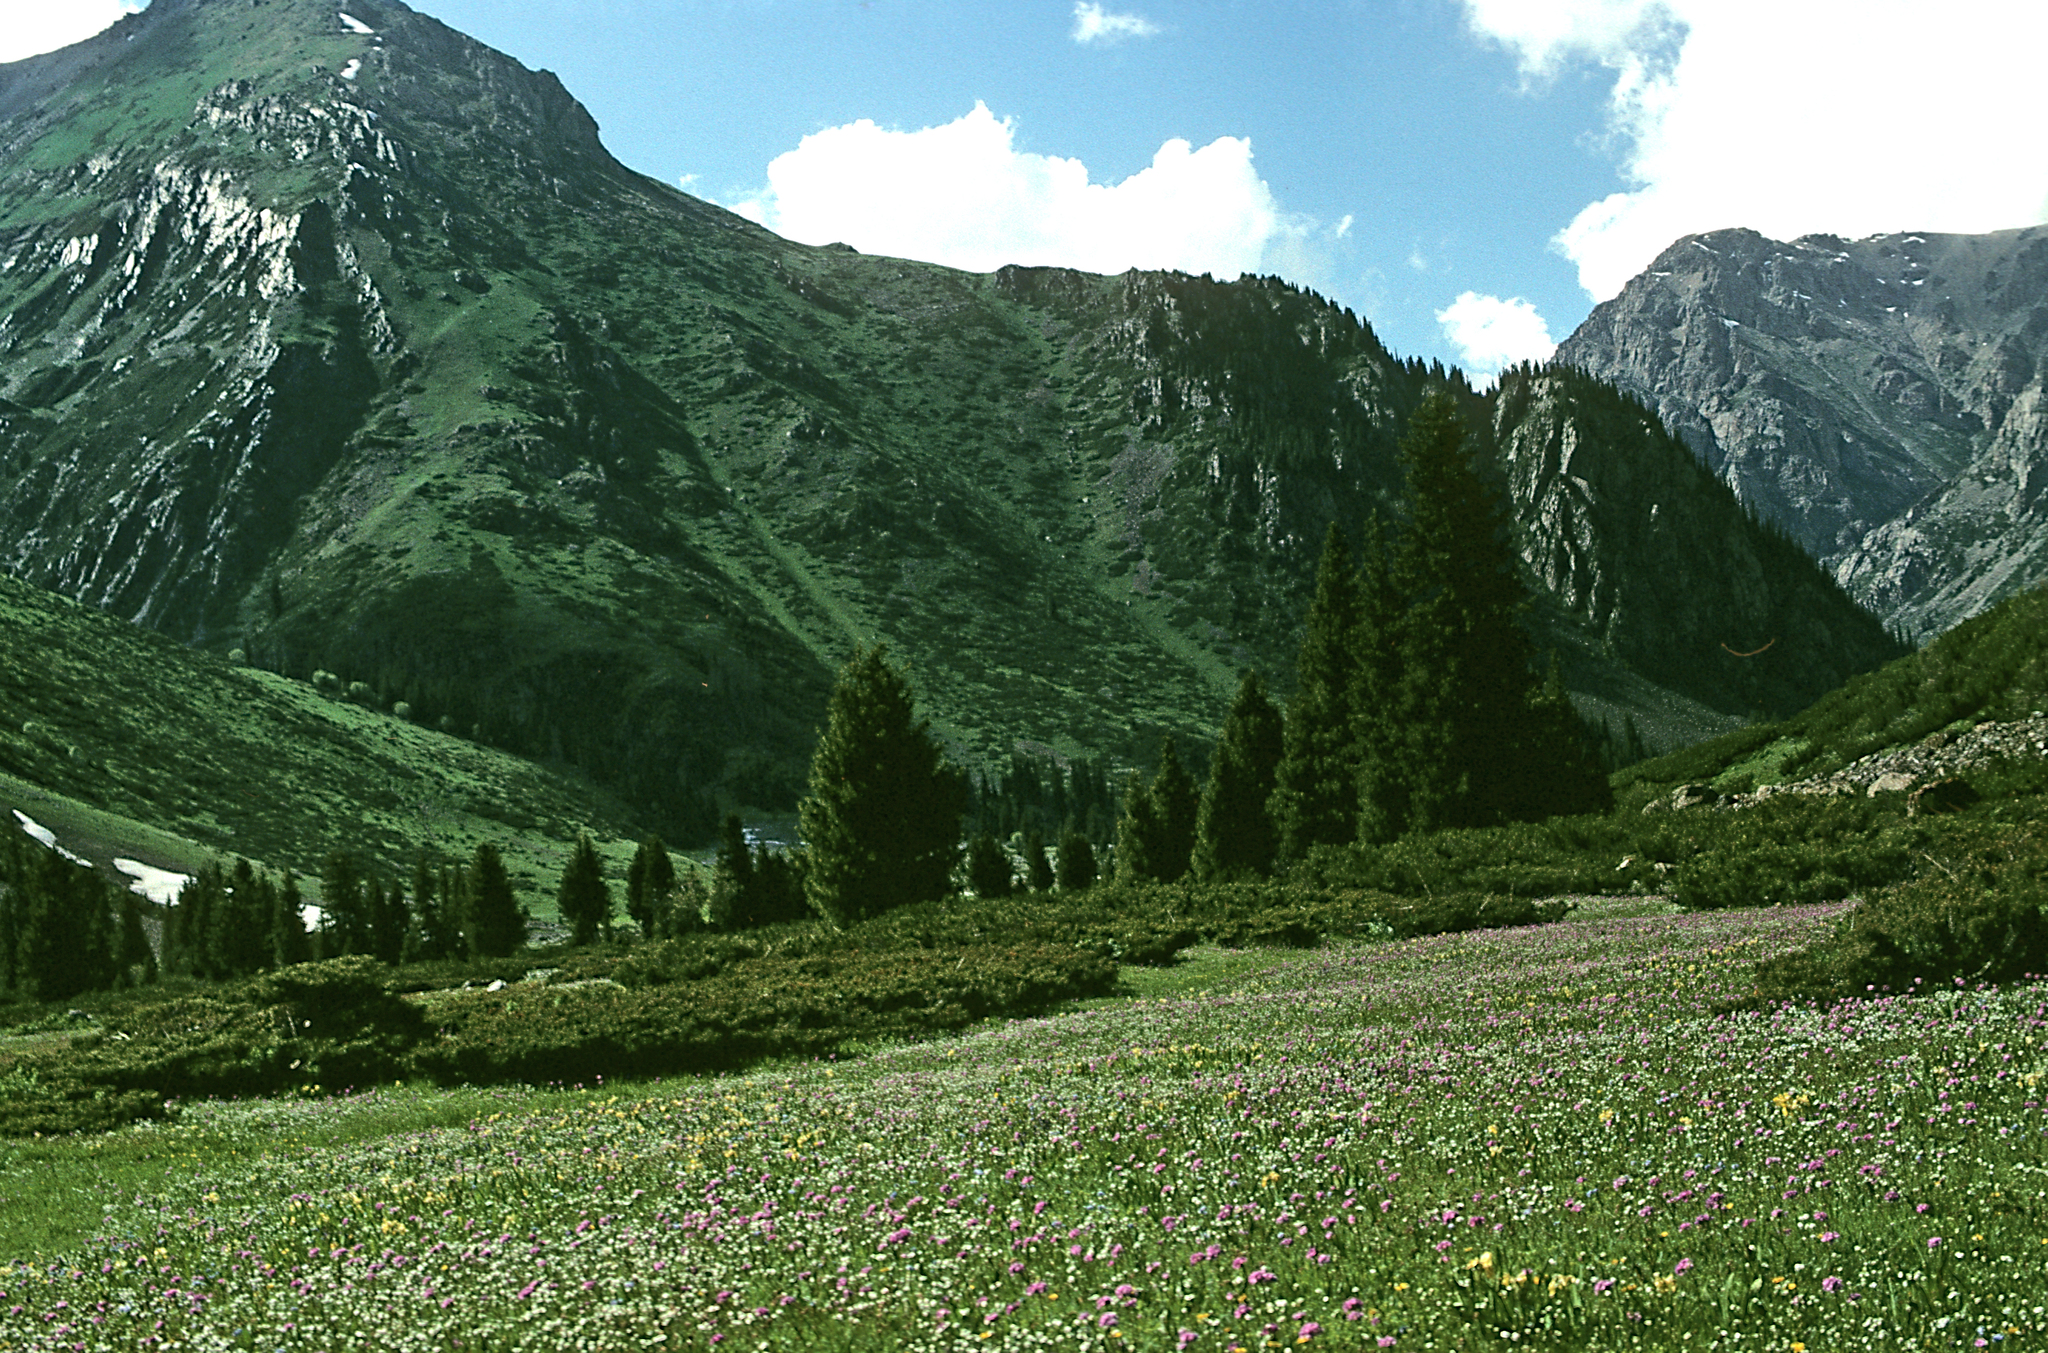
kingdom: Plantae
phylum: Tracheophyta
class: Pinopsida
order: Pinales
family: Pinaceae
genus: Picea
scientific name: Picea schrenkiana
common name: Asian spruce
